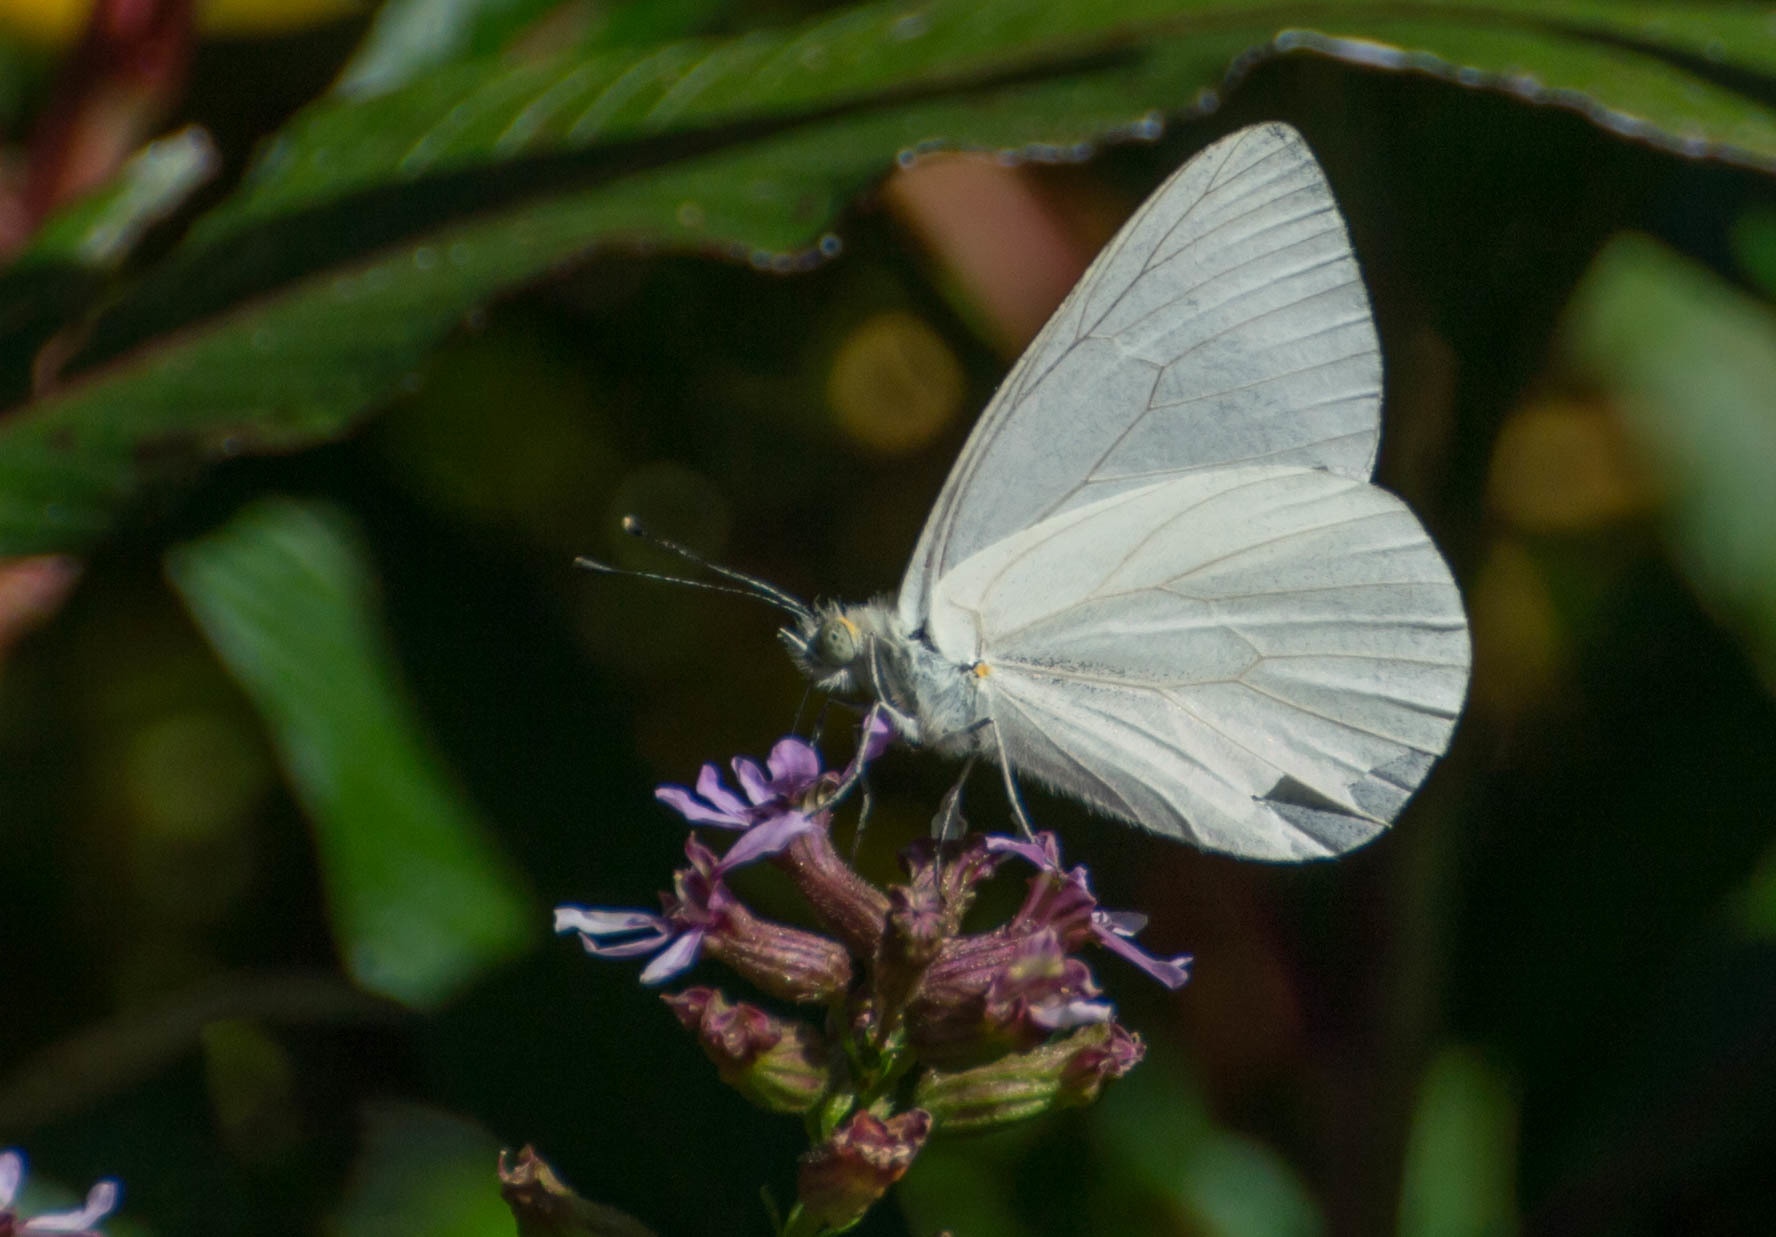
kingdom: Animalia
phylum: Arthropoda
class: Insecta
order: Lepidoptera
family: Pieridae
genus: Theochila
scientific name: Theochila maenacte
